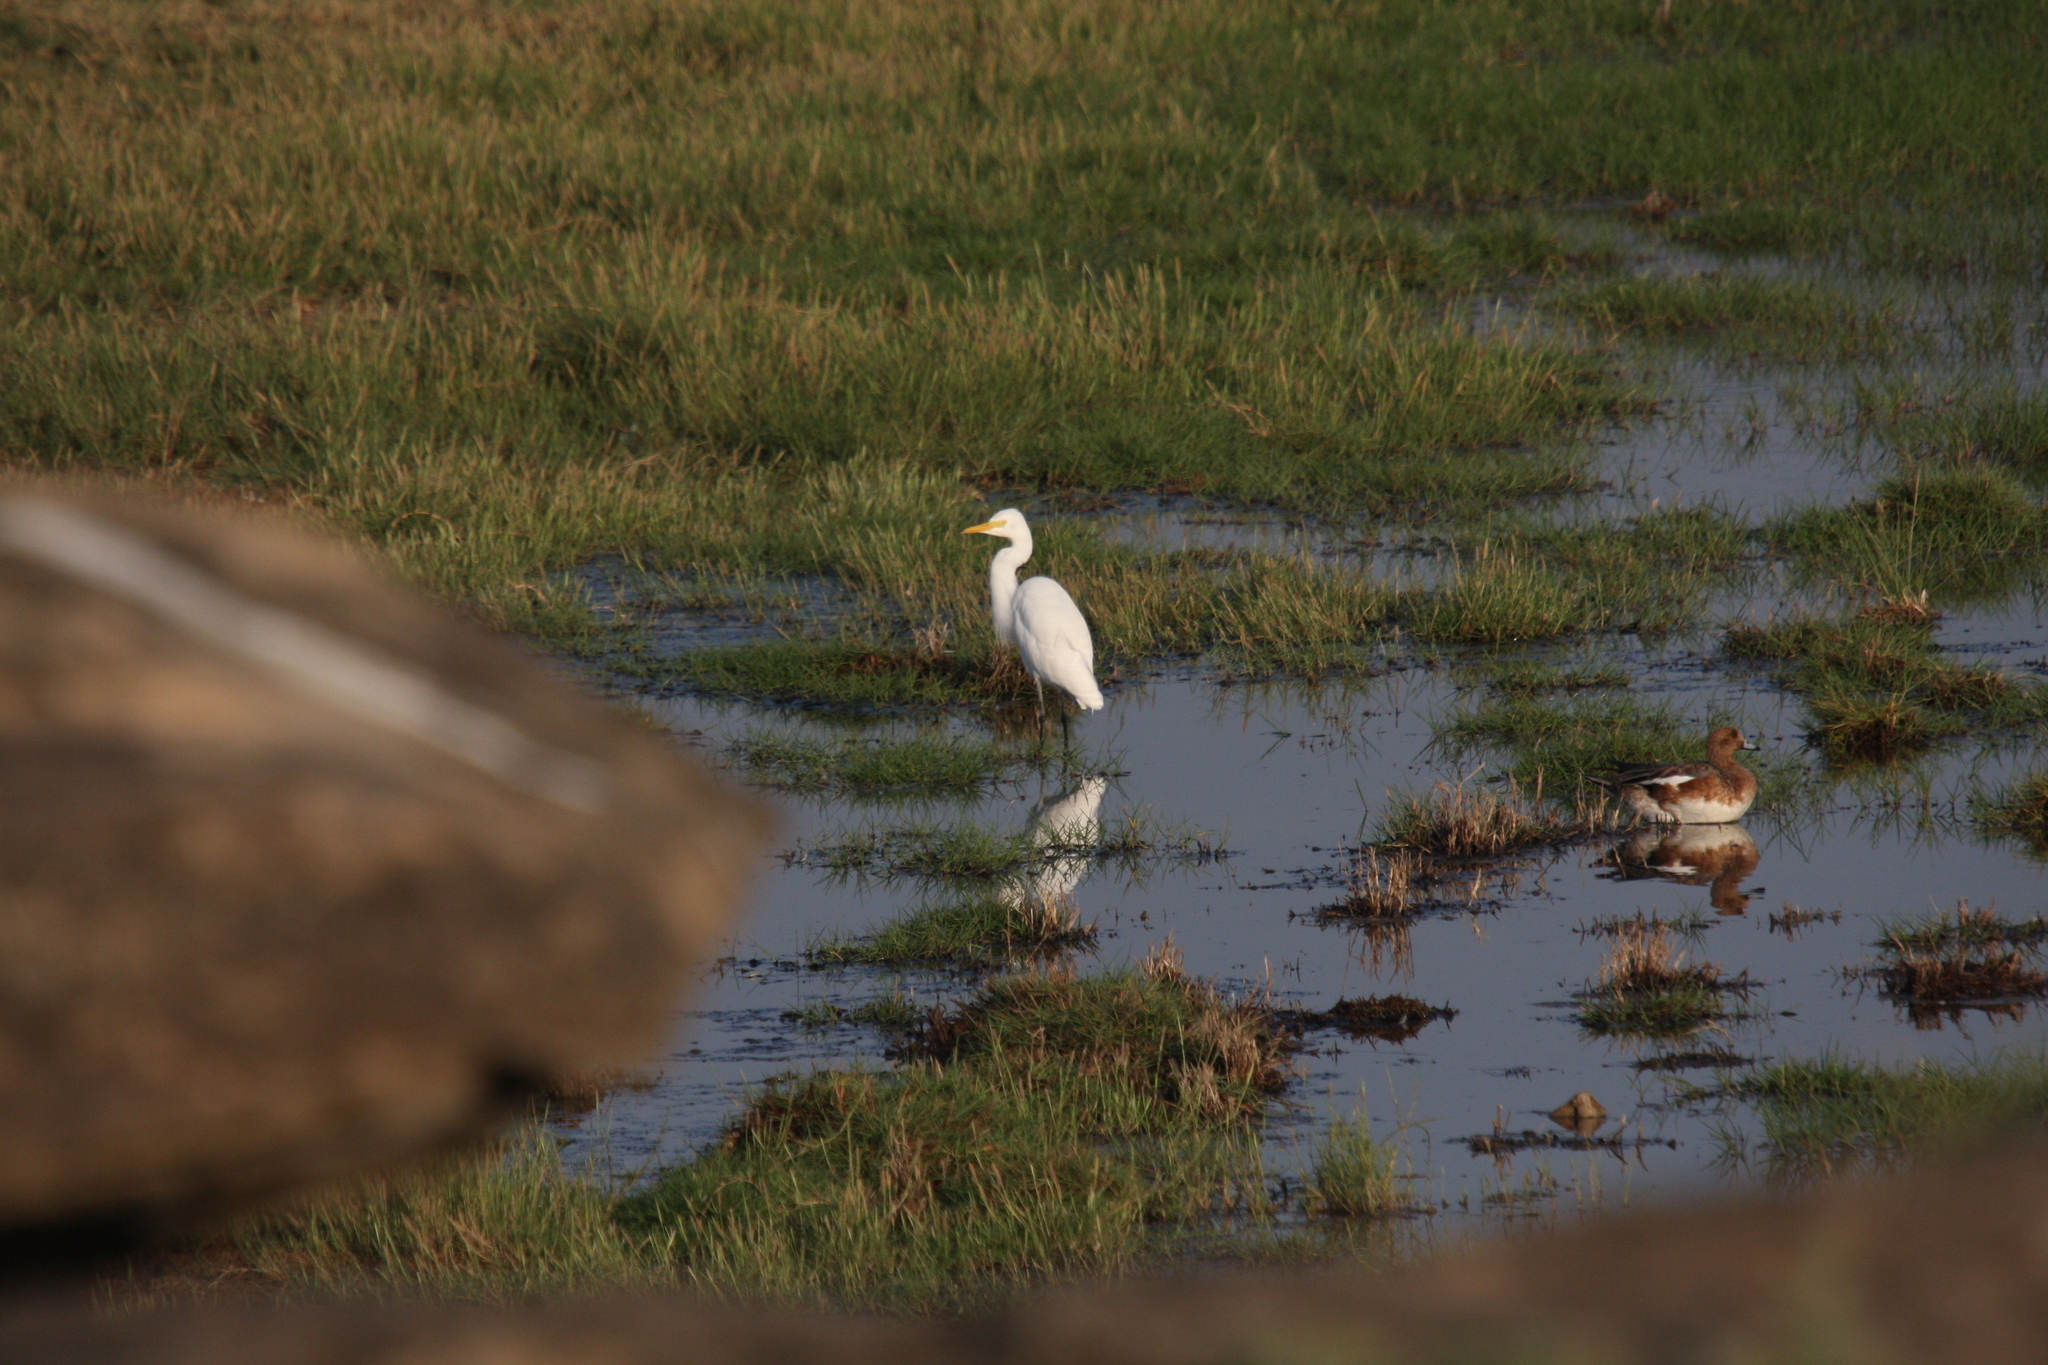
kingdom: Animalia
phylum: Chordata
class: Aves
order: Pelecaniformes
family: Ardeidae
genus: Egretta
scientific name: Egretta intermedia
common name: Intermediate egret
